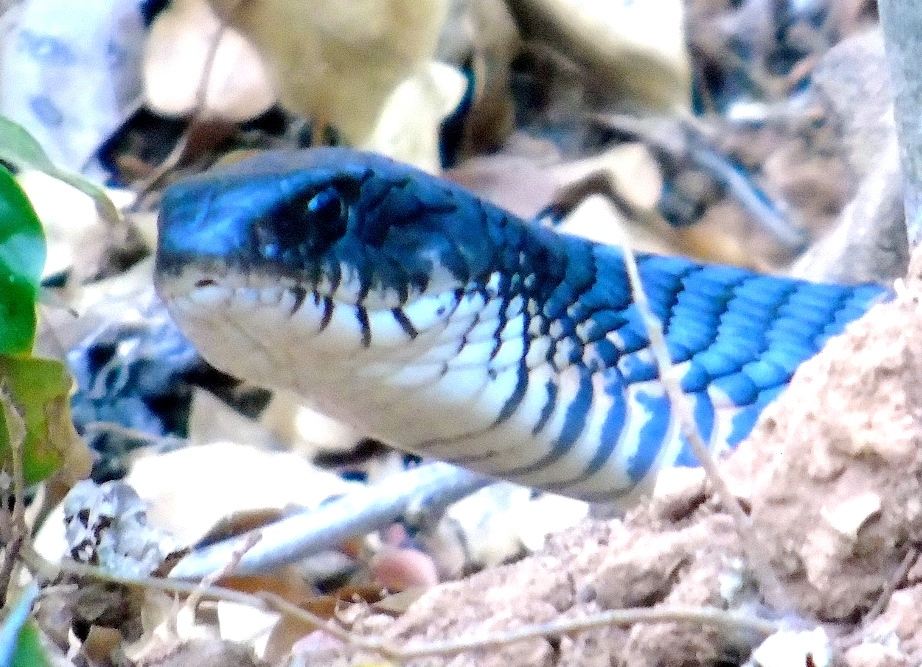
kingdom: Animalia
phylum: Chordata
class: Squamata
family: Colubridae
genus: Drymarchon
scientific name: Drymarchon melanurus
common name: Central american indigo snake
